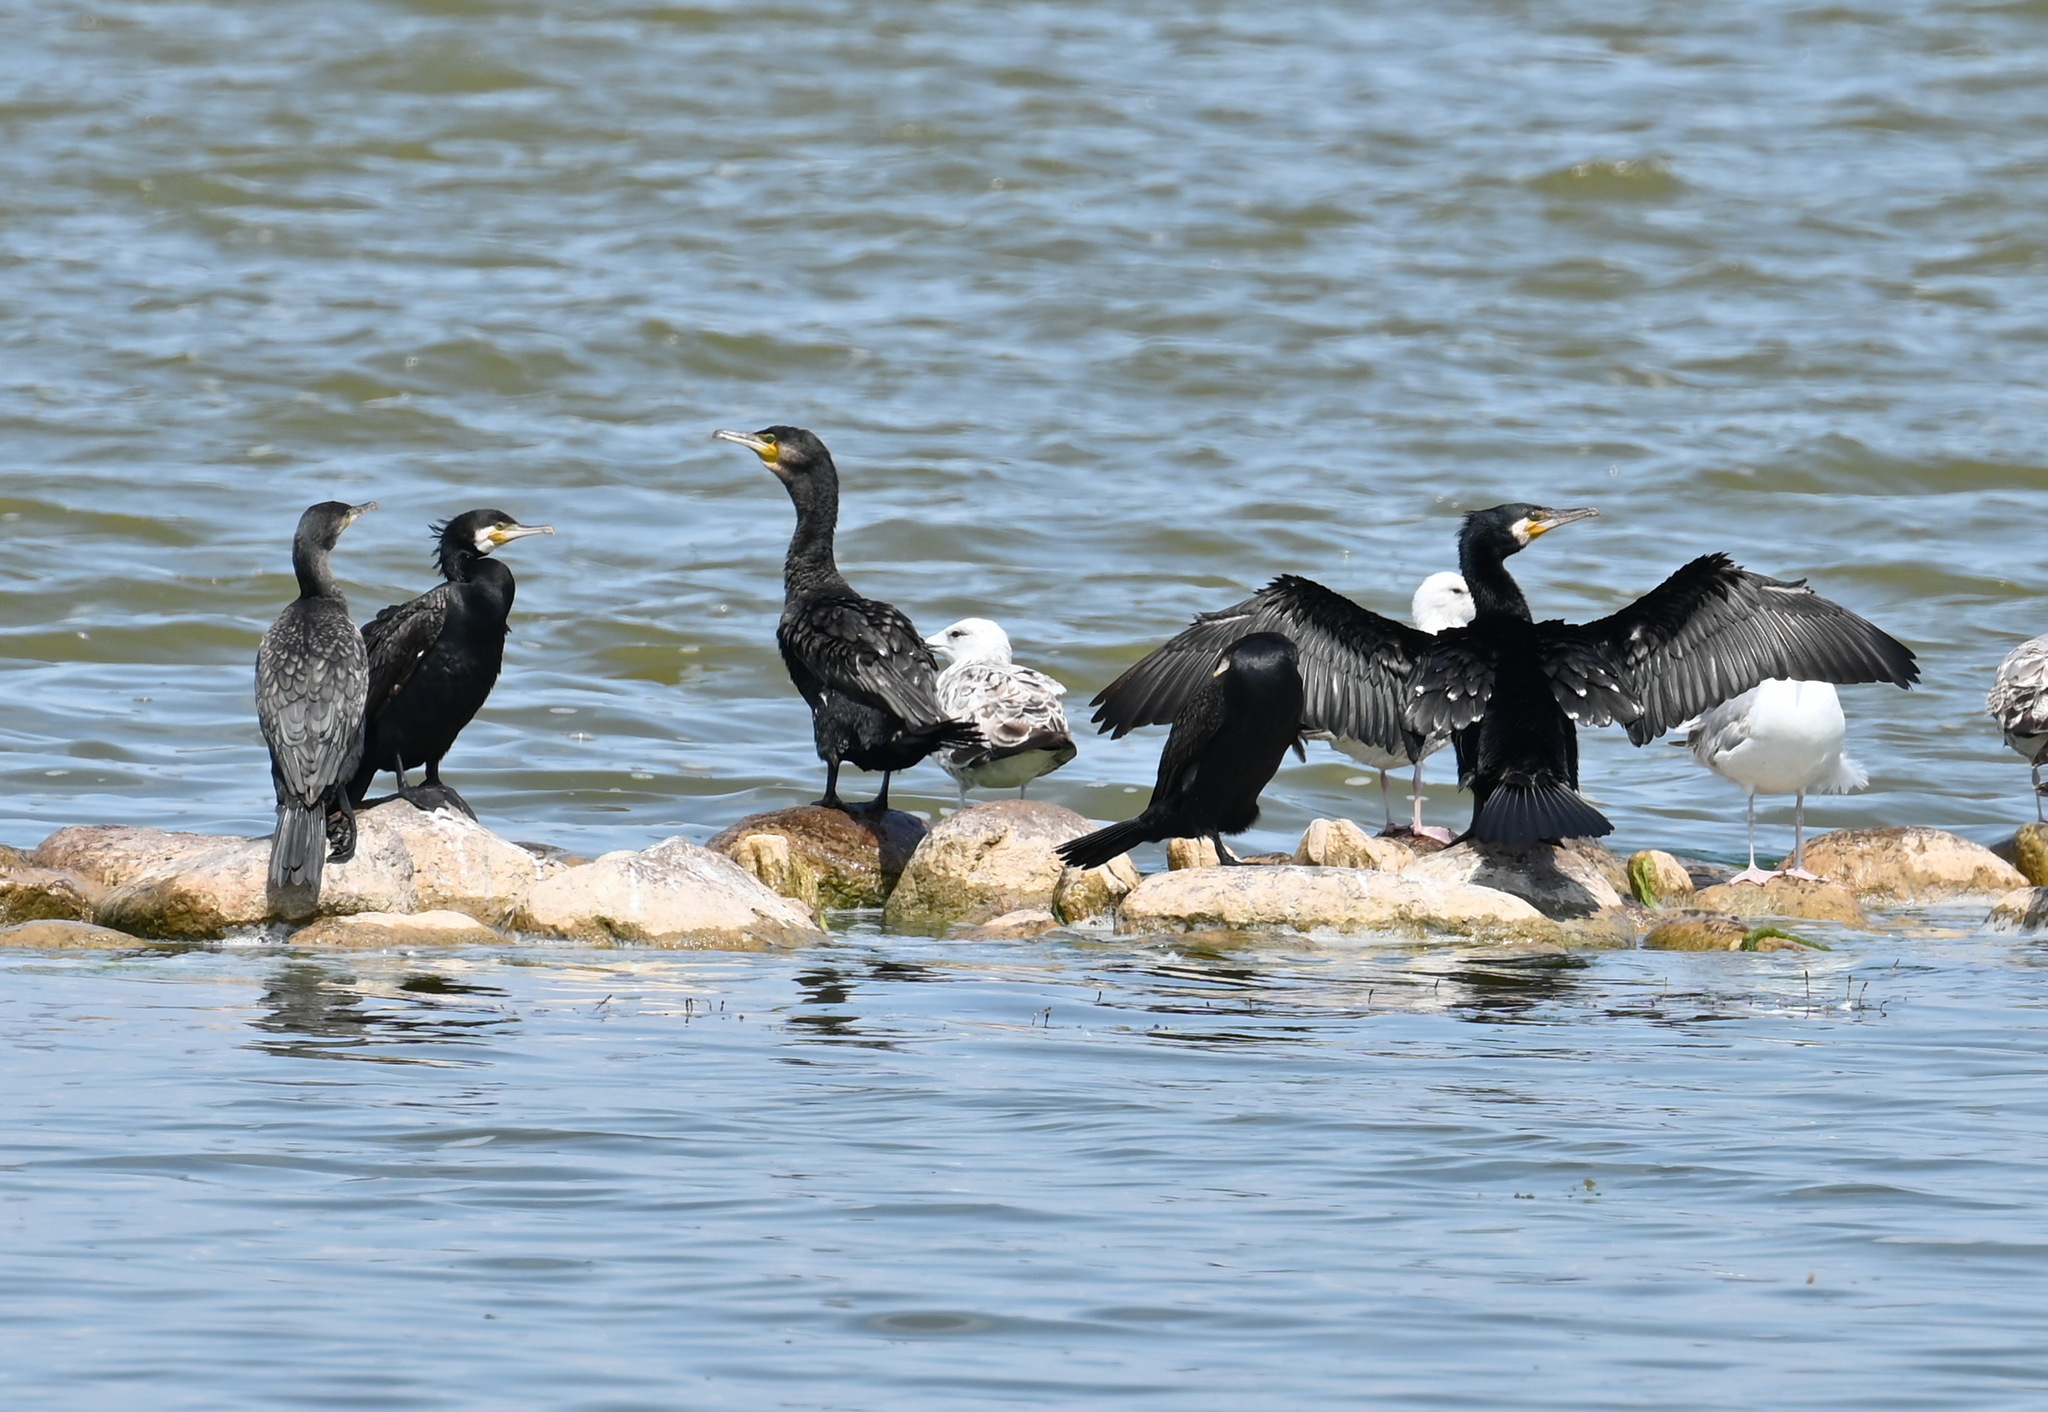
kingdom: Animalia
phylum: Chordata
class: Aves
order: Suliformes
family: Phalacrocoracidae
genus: Phalacrocorax
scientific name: Phalacrocorax carbo
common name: Great cormorant
